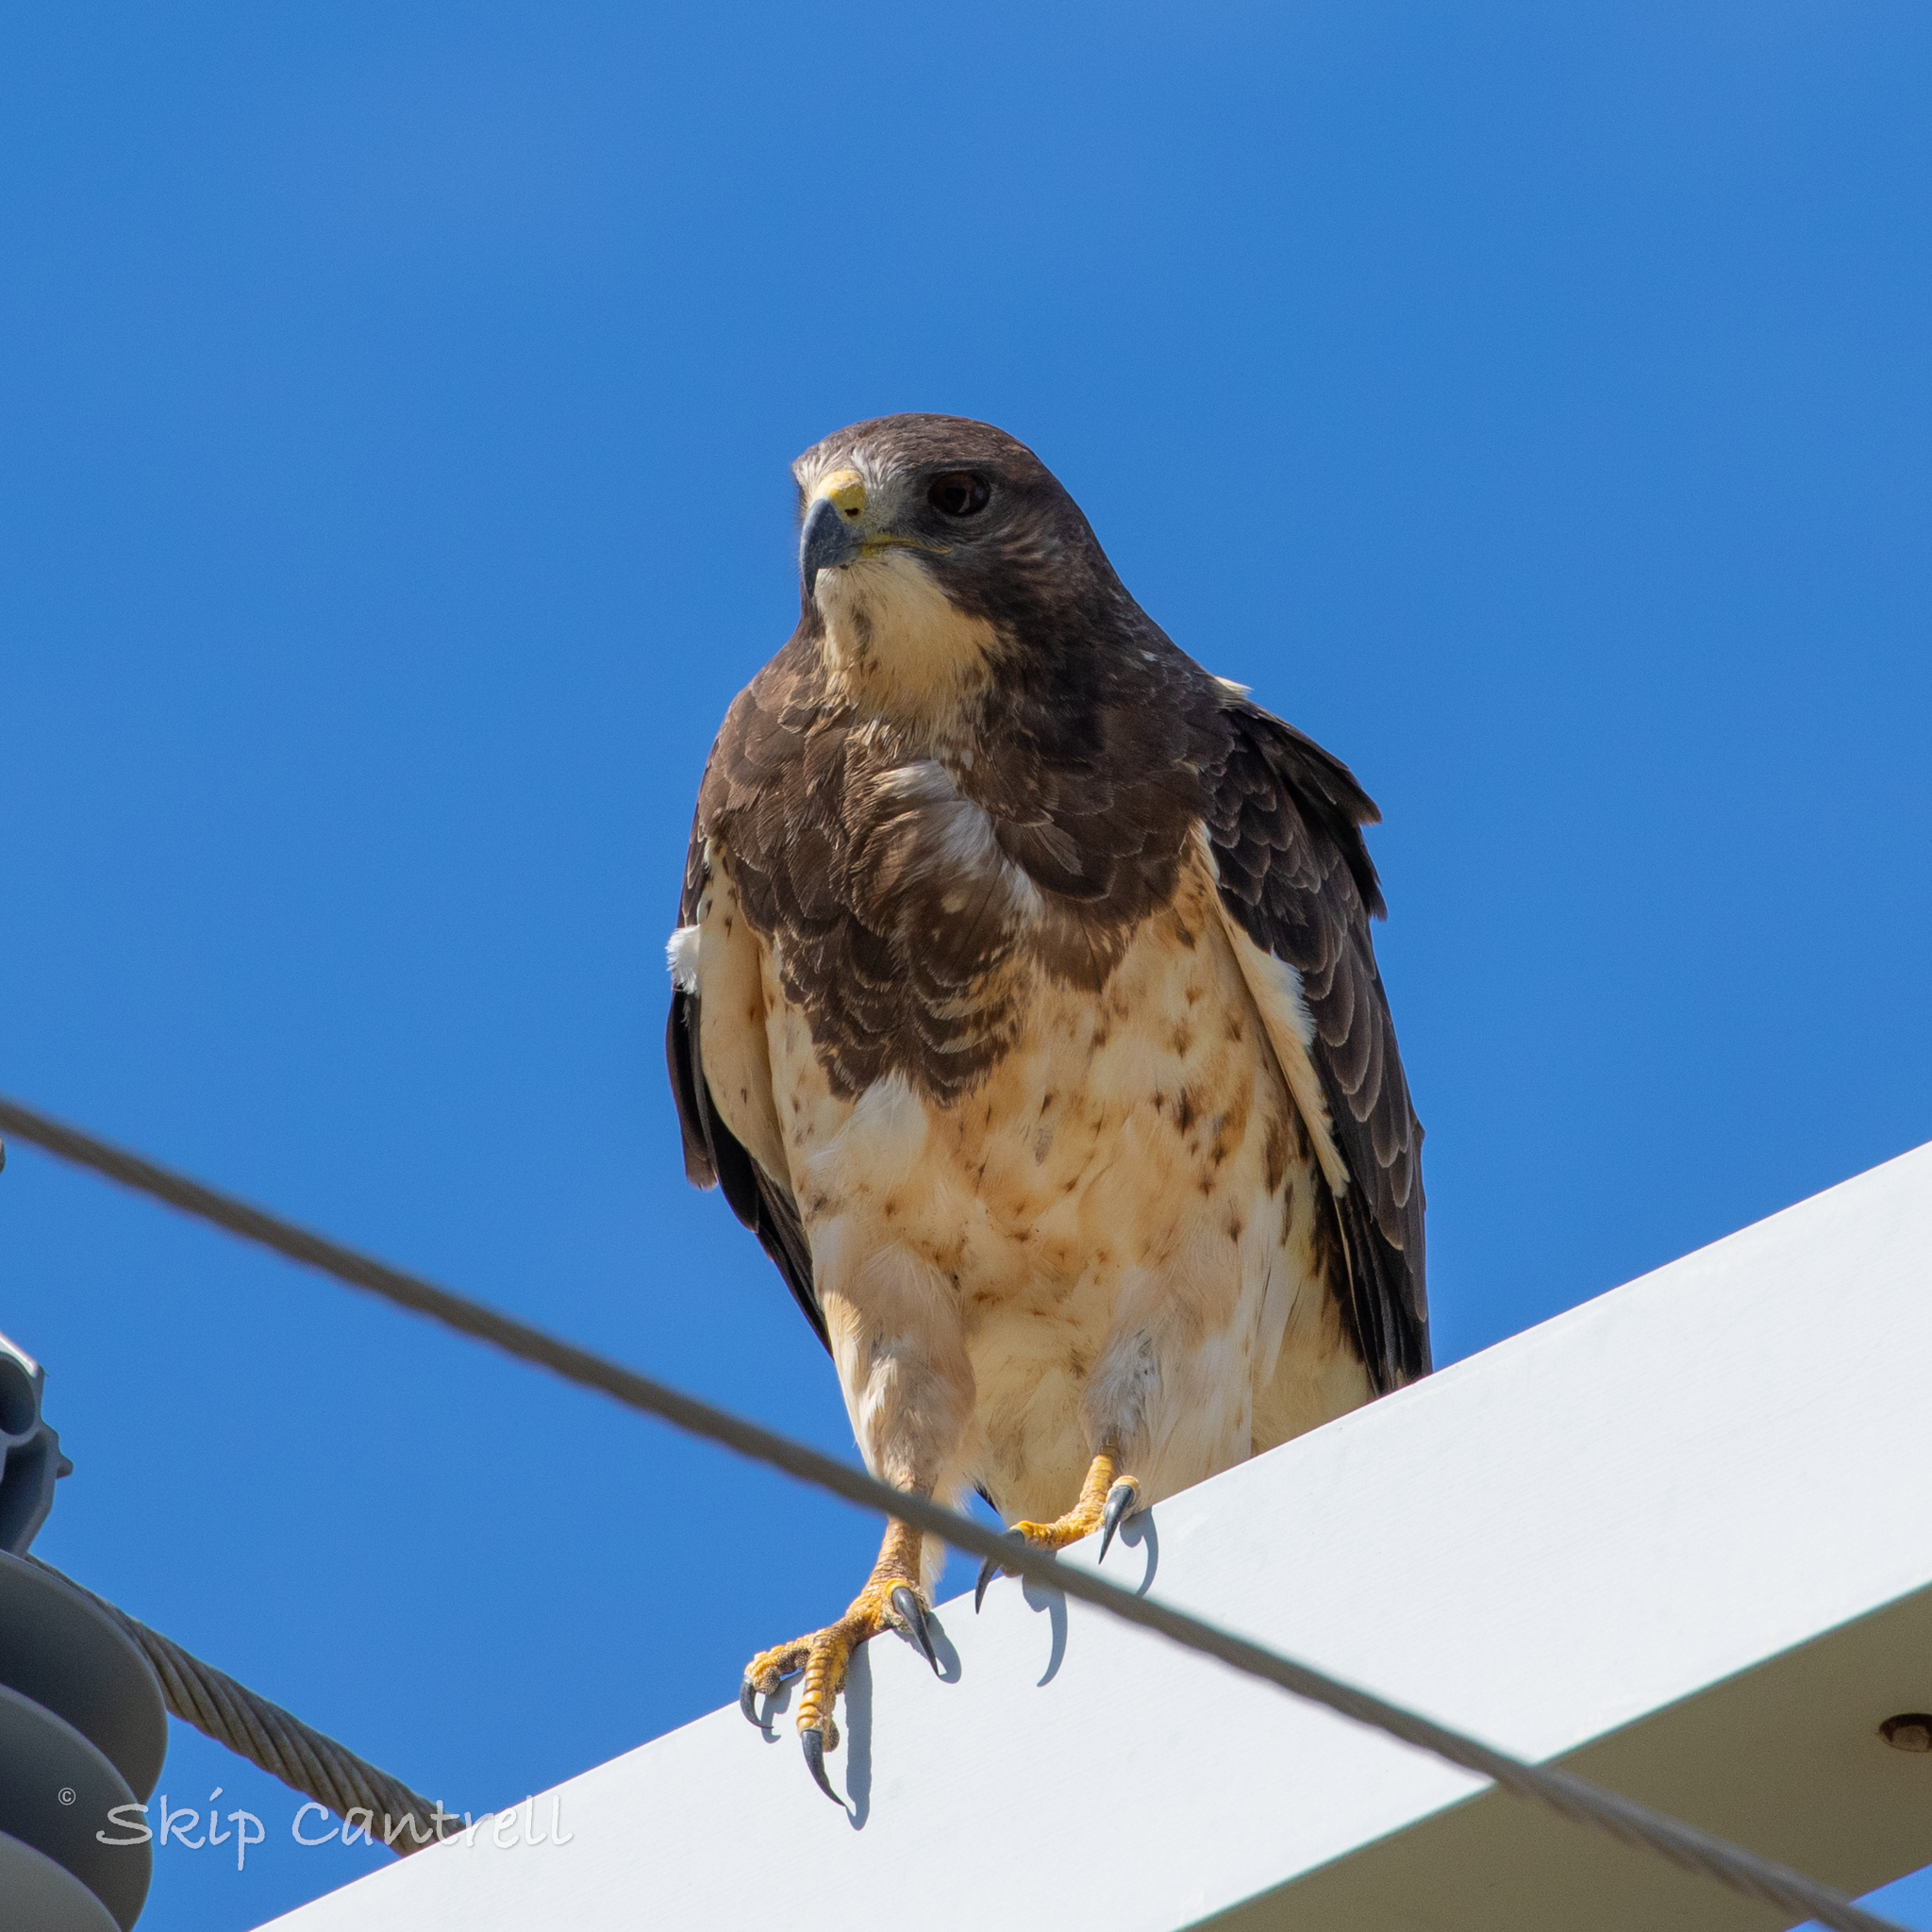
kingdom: Animalia
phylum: Chordata
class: Aves
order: Accipitriformes
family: Accipitridae
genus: Buteo
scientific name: Buteo swainsoni
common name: Swainson's hawk
